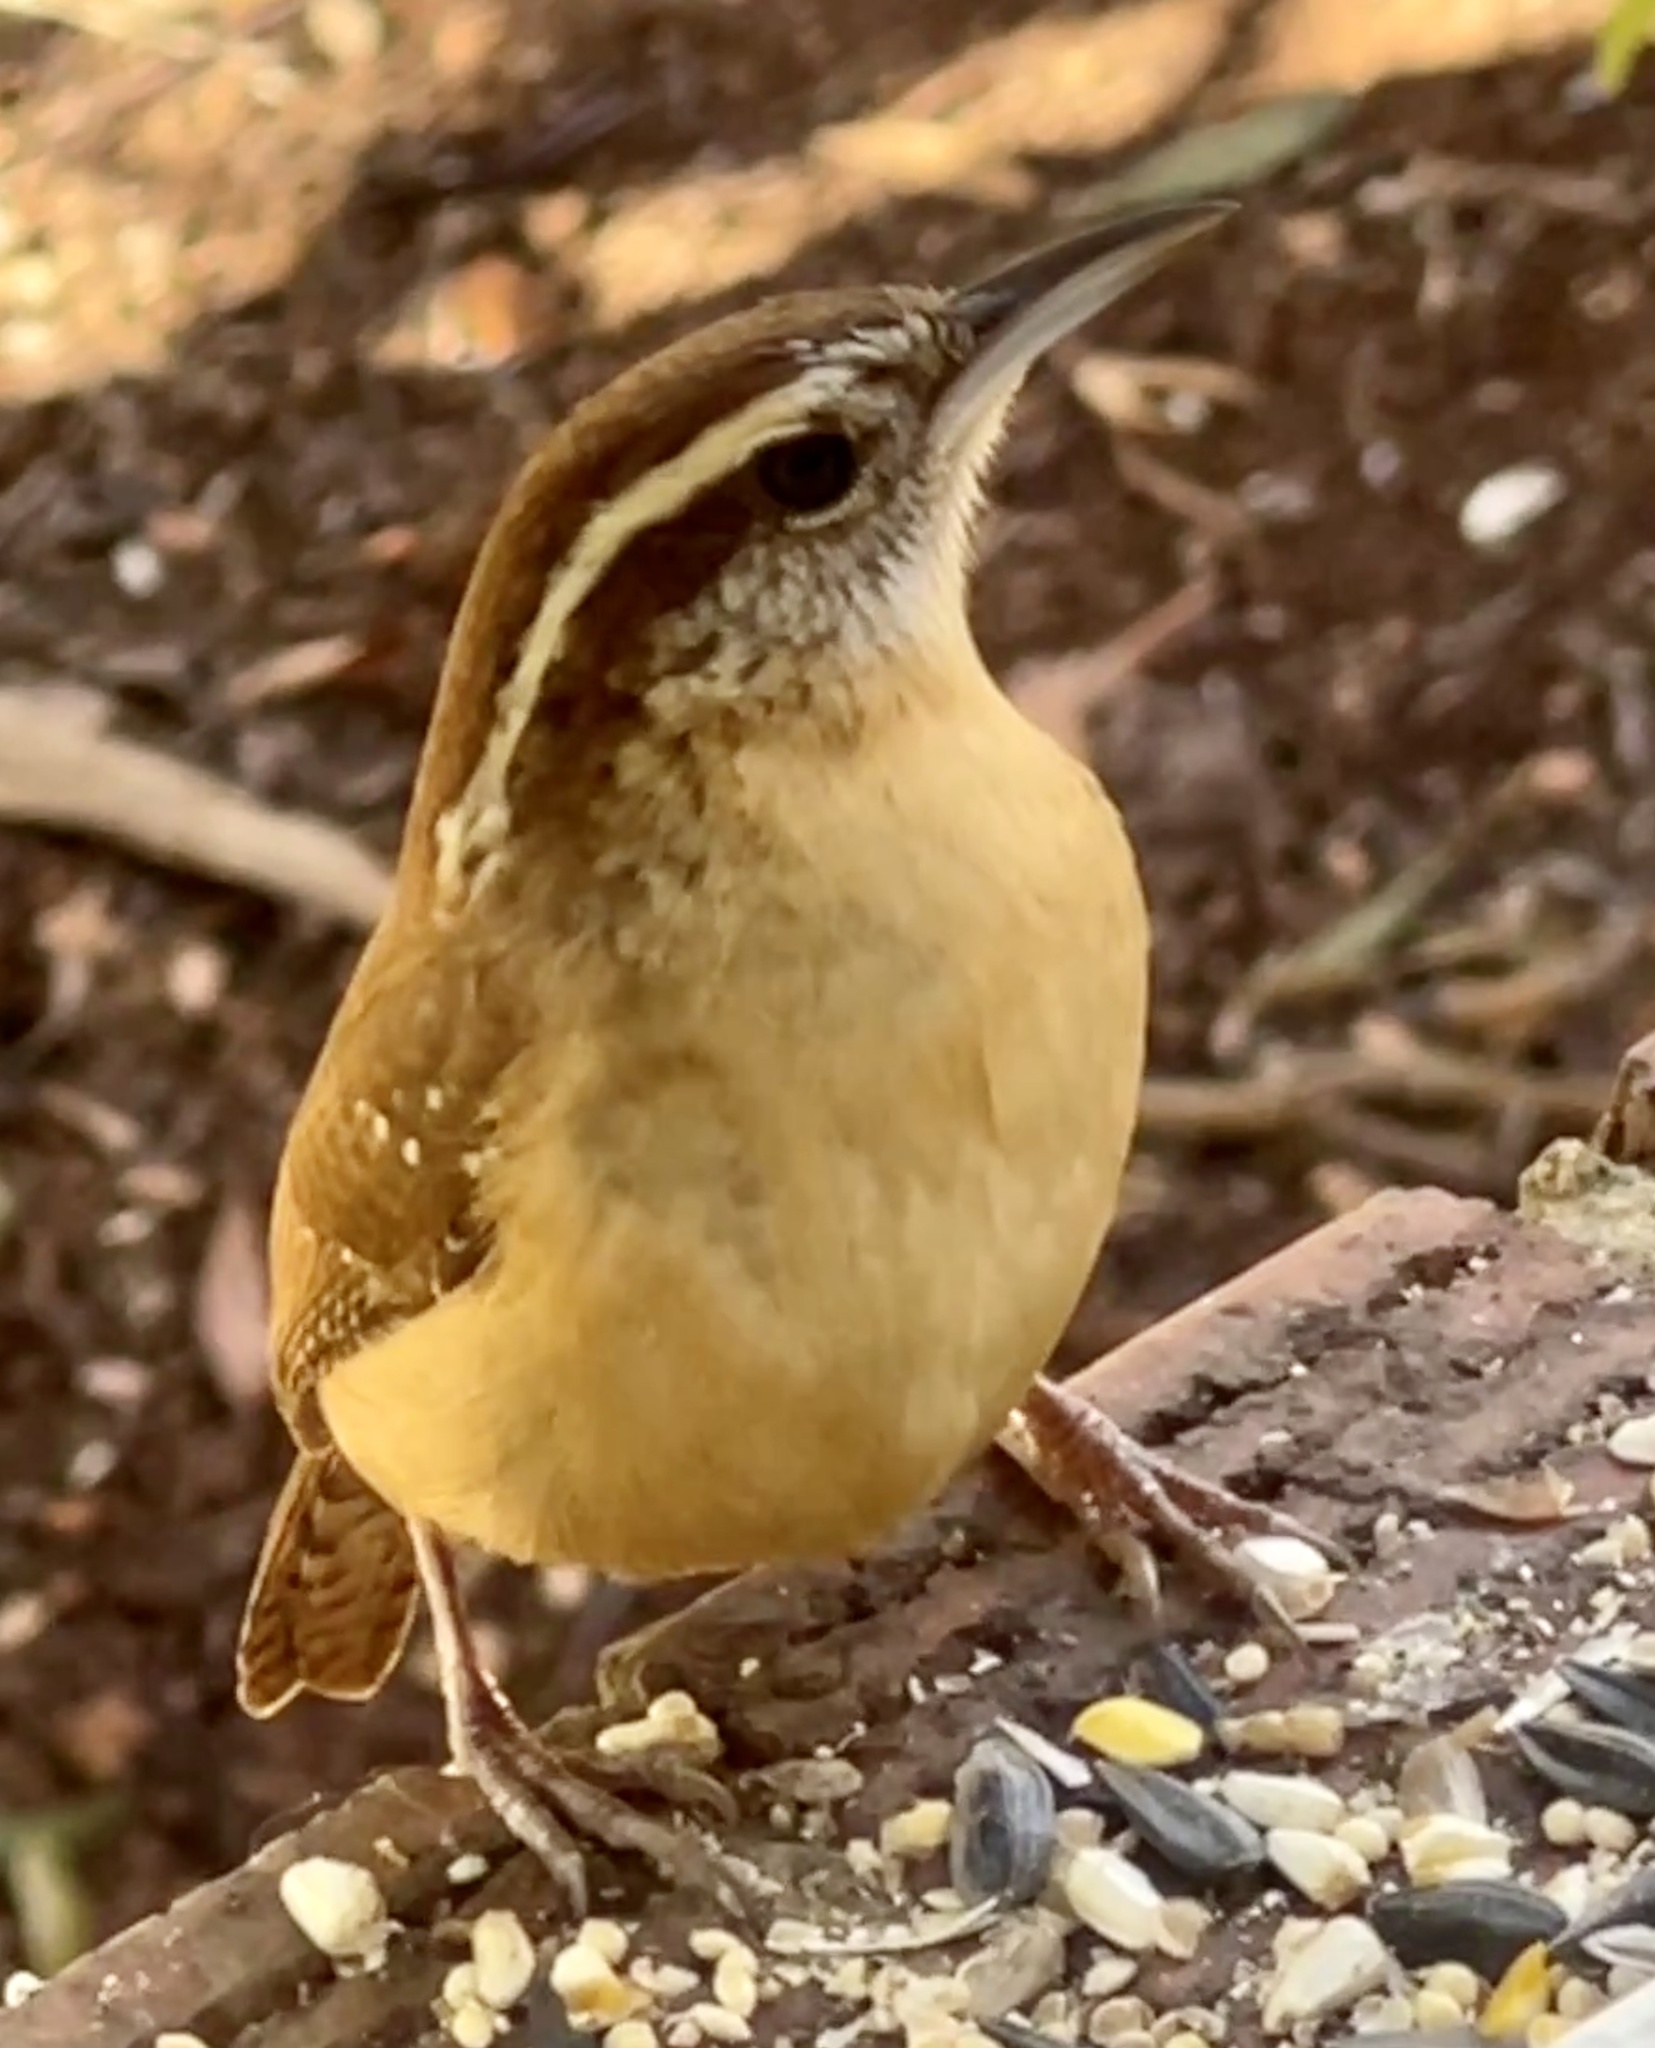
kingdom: Animalia
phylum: Chordata
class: Aves
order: Passeriformes
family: Troglodytidae
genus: Thryothorus
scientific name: Thryothorus ludovicianus
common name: Carolina wren
